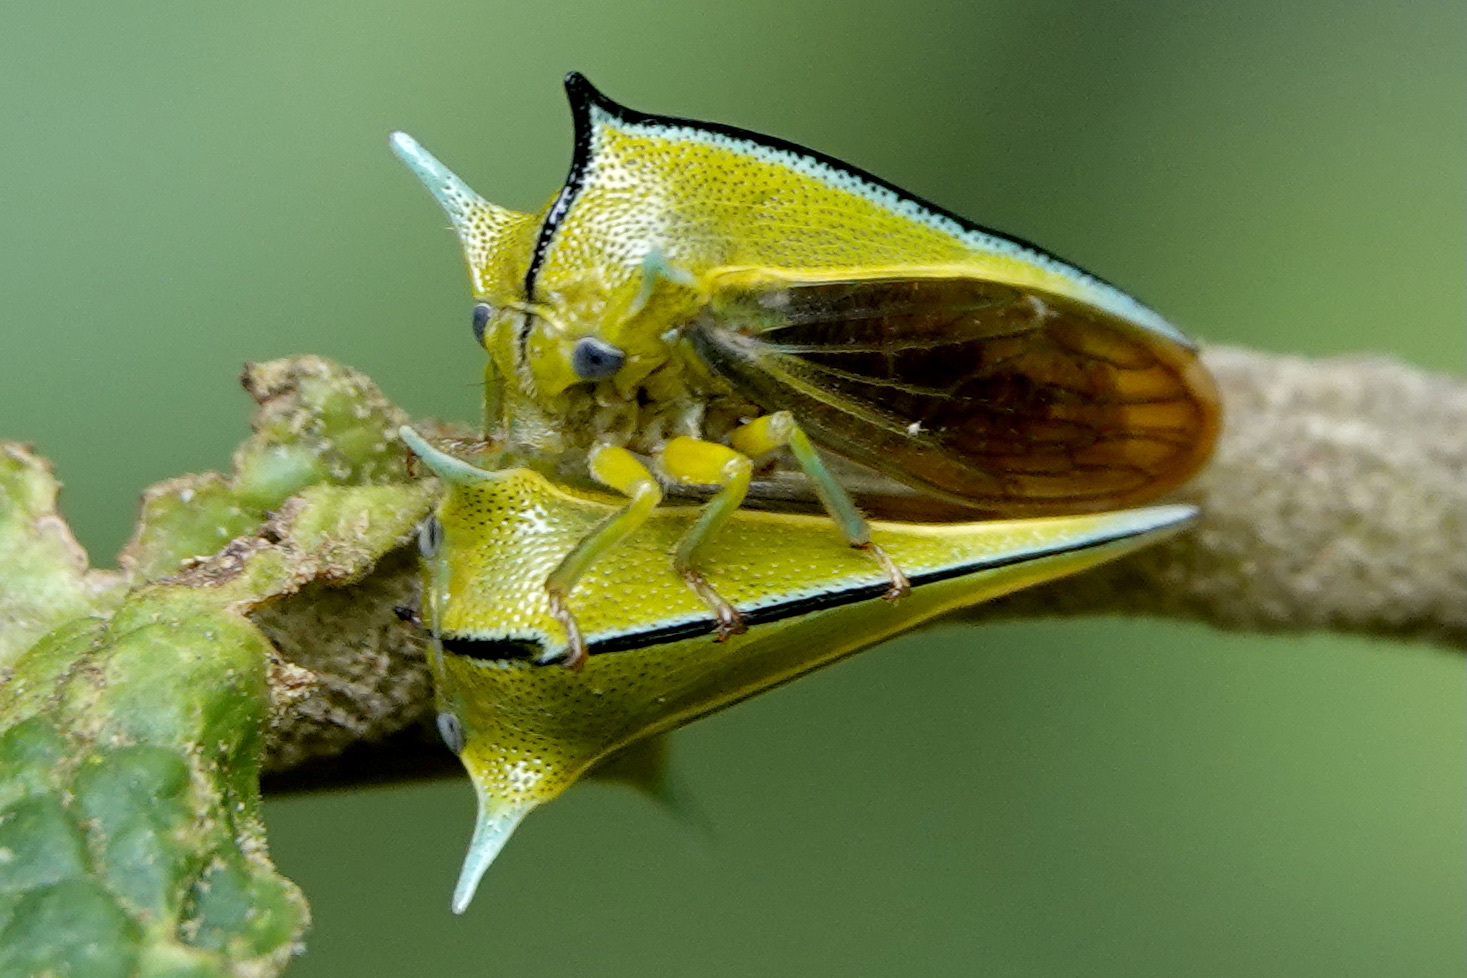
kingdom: Animalia
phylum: Arthropoda
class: Insecta
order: Hemiptera
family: Membracidae
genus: Alchisme
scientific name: Alchisme ustulata
